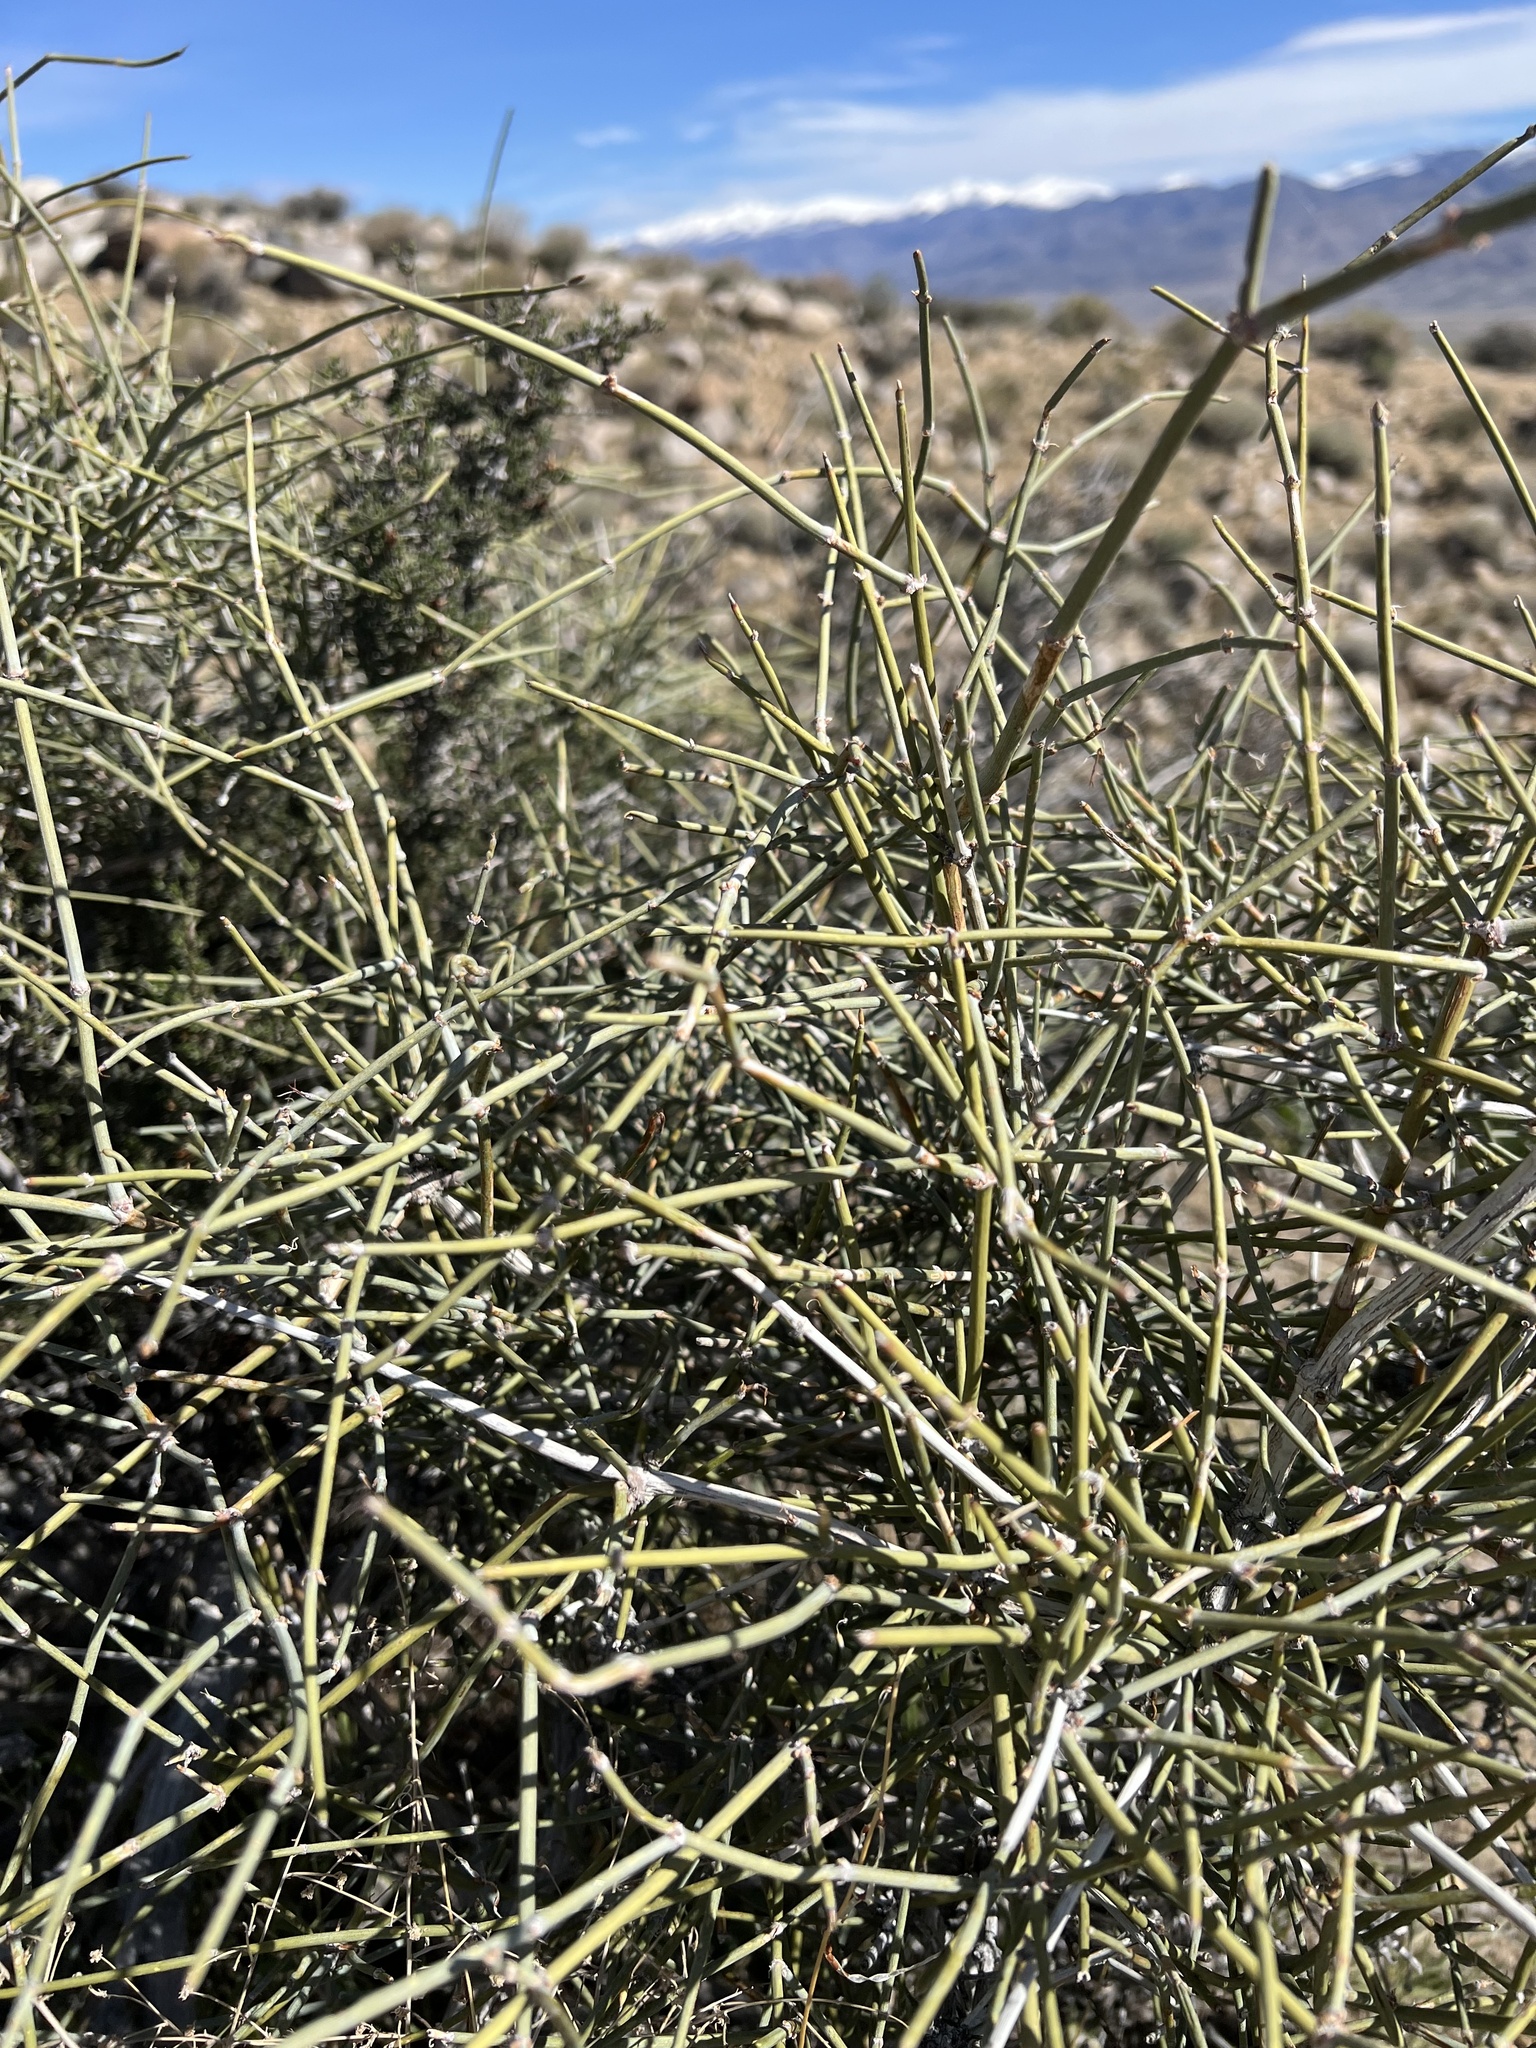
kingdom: Plantae
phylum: Tracheophyta
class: Gnetopsida
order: Ephedrales
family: Ephedraceae
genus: Ephedra
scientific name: Ephedra nevadensis
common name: Gray ephedra
